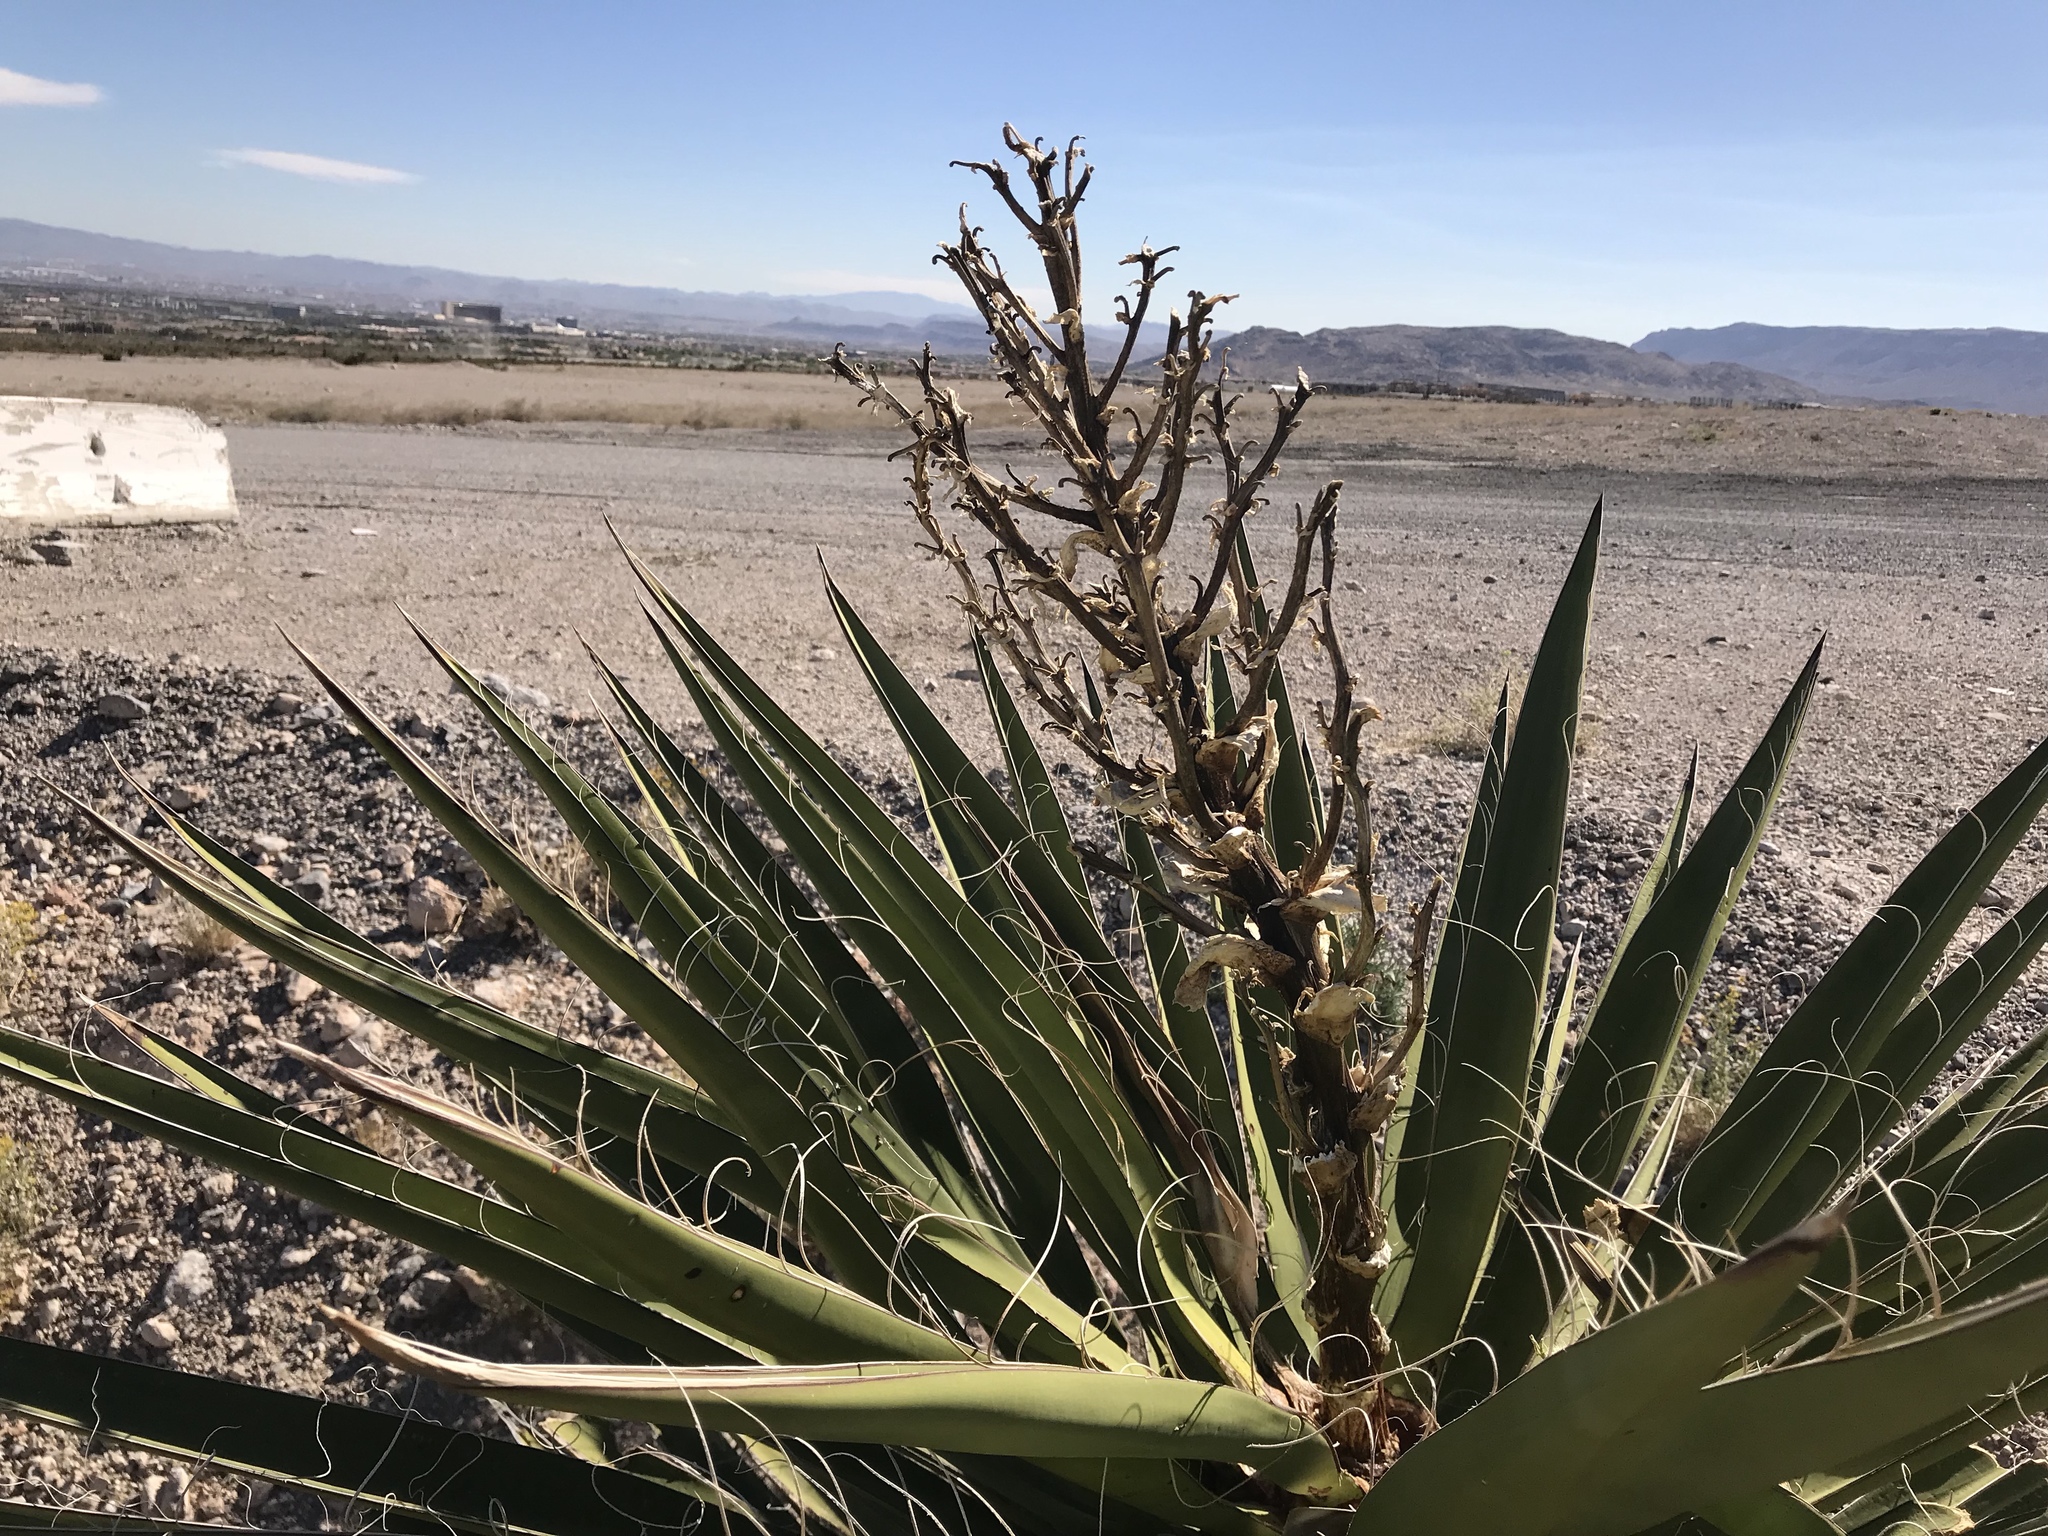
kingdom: Plantae
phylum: Tracheophyta
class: Liliopsida
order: Asparagales
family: Asparagaceae
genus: Yucca
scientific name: Yucca schidigera
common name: Mojave yucca
